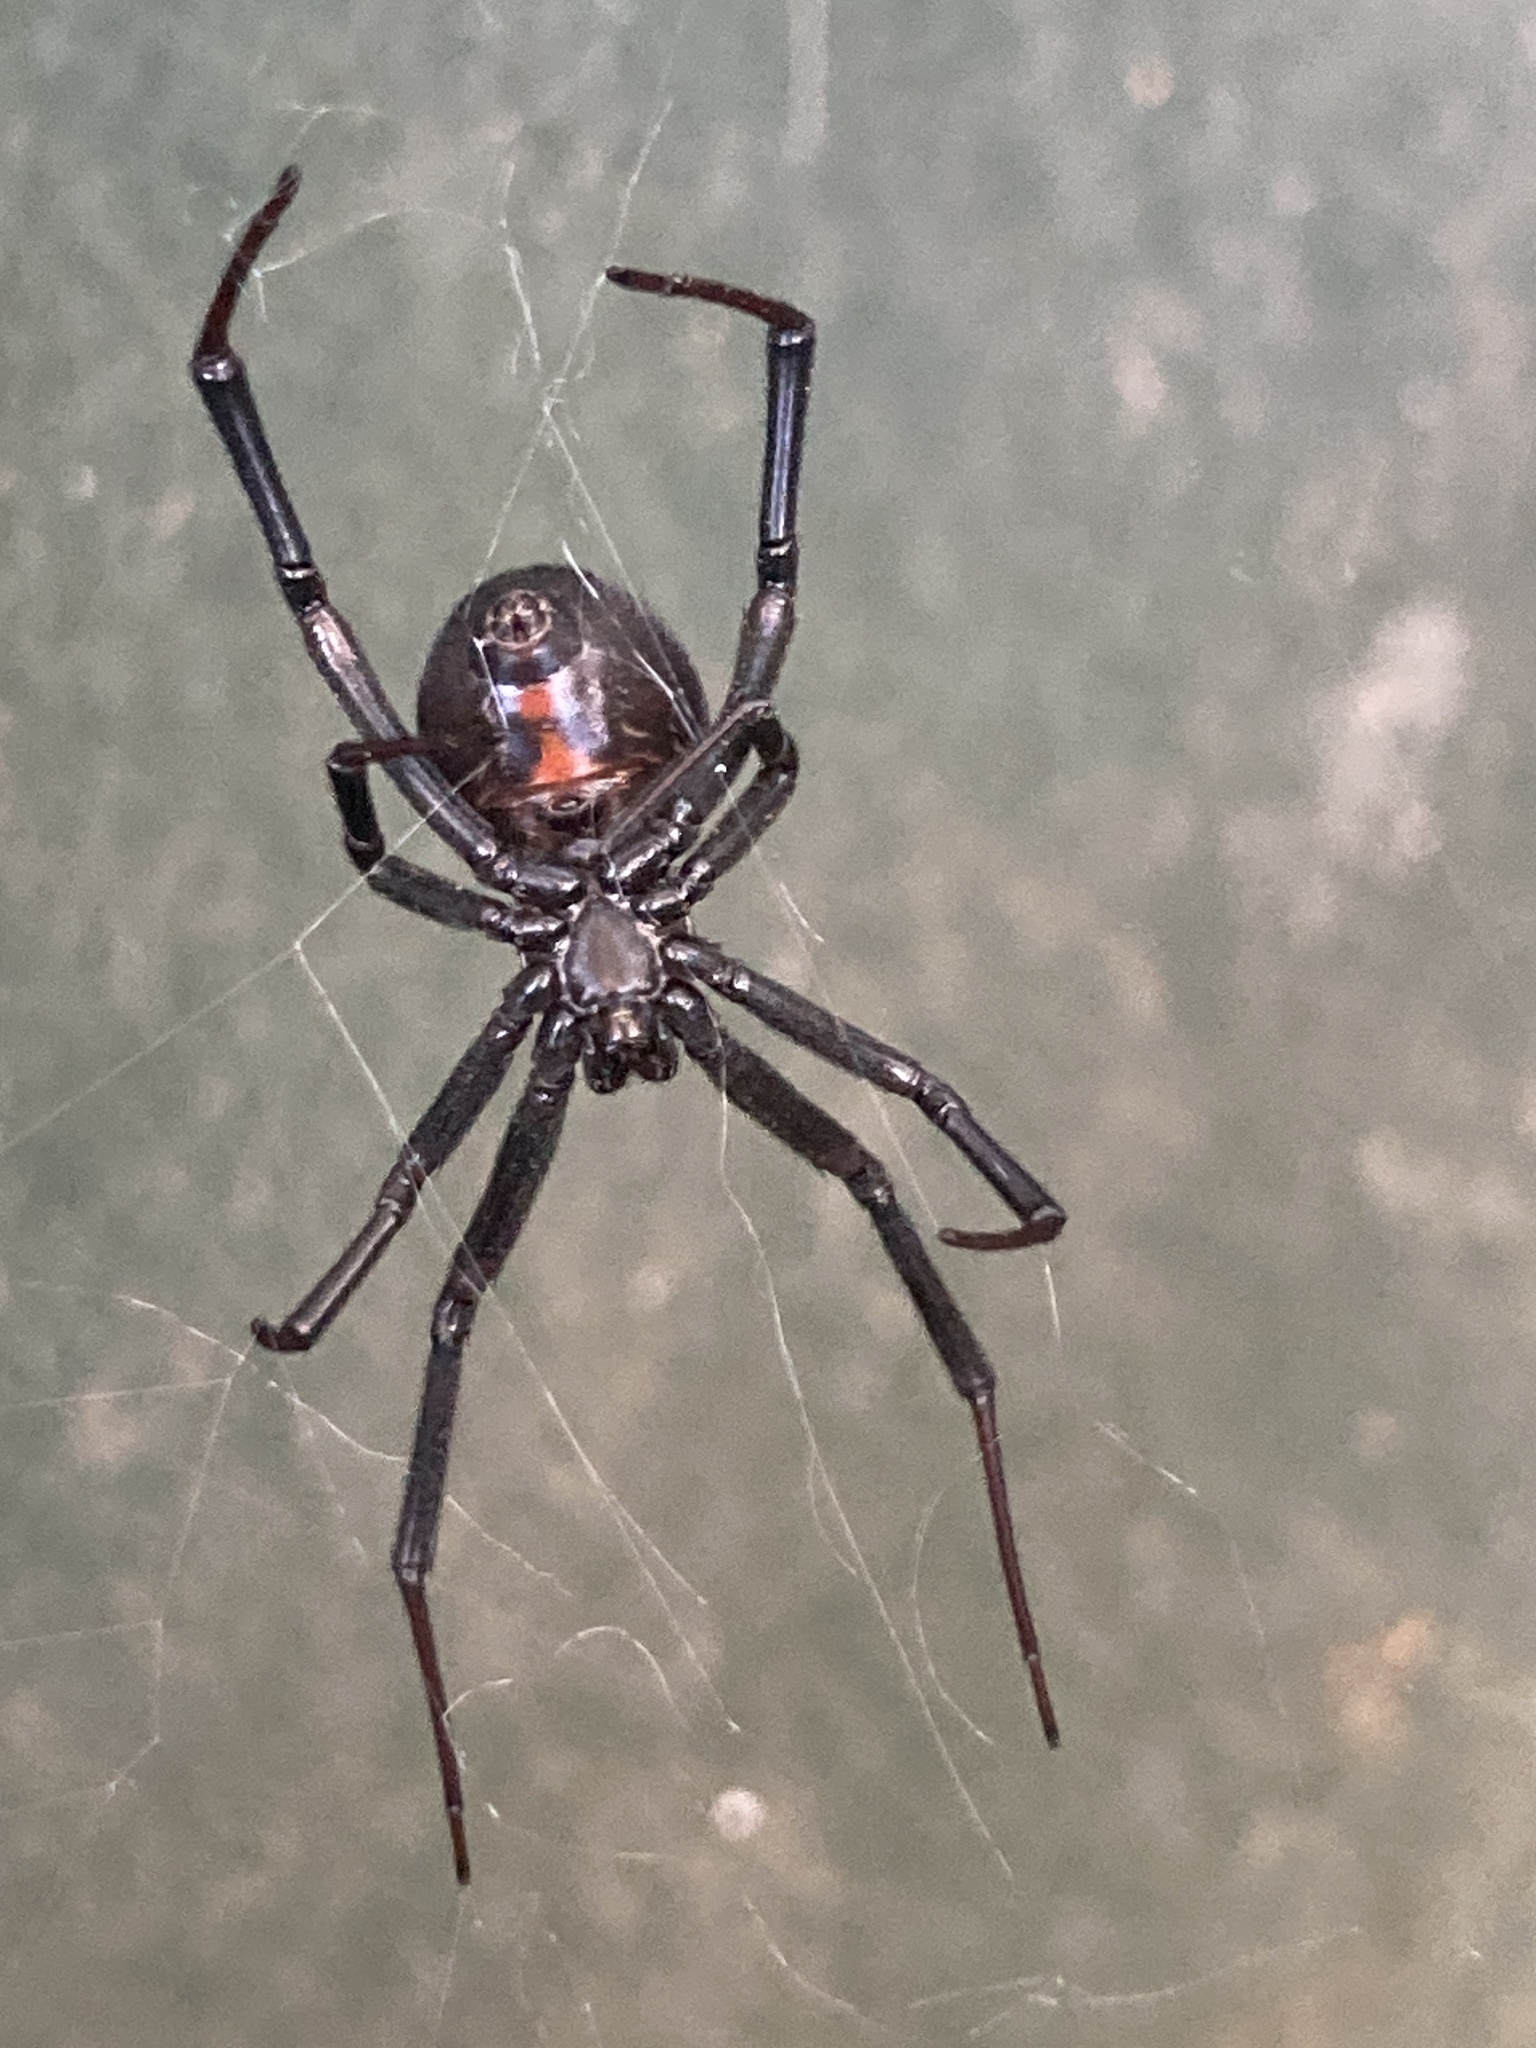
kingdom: Animalia
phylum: Arthropoda
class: Arachnida
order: Araneae
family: Theridiidae
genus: Latrodectus
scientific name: Latrodectus hesperus
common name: Western black widow
